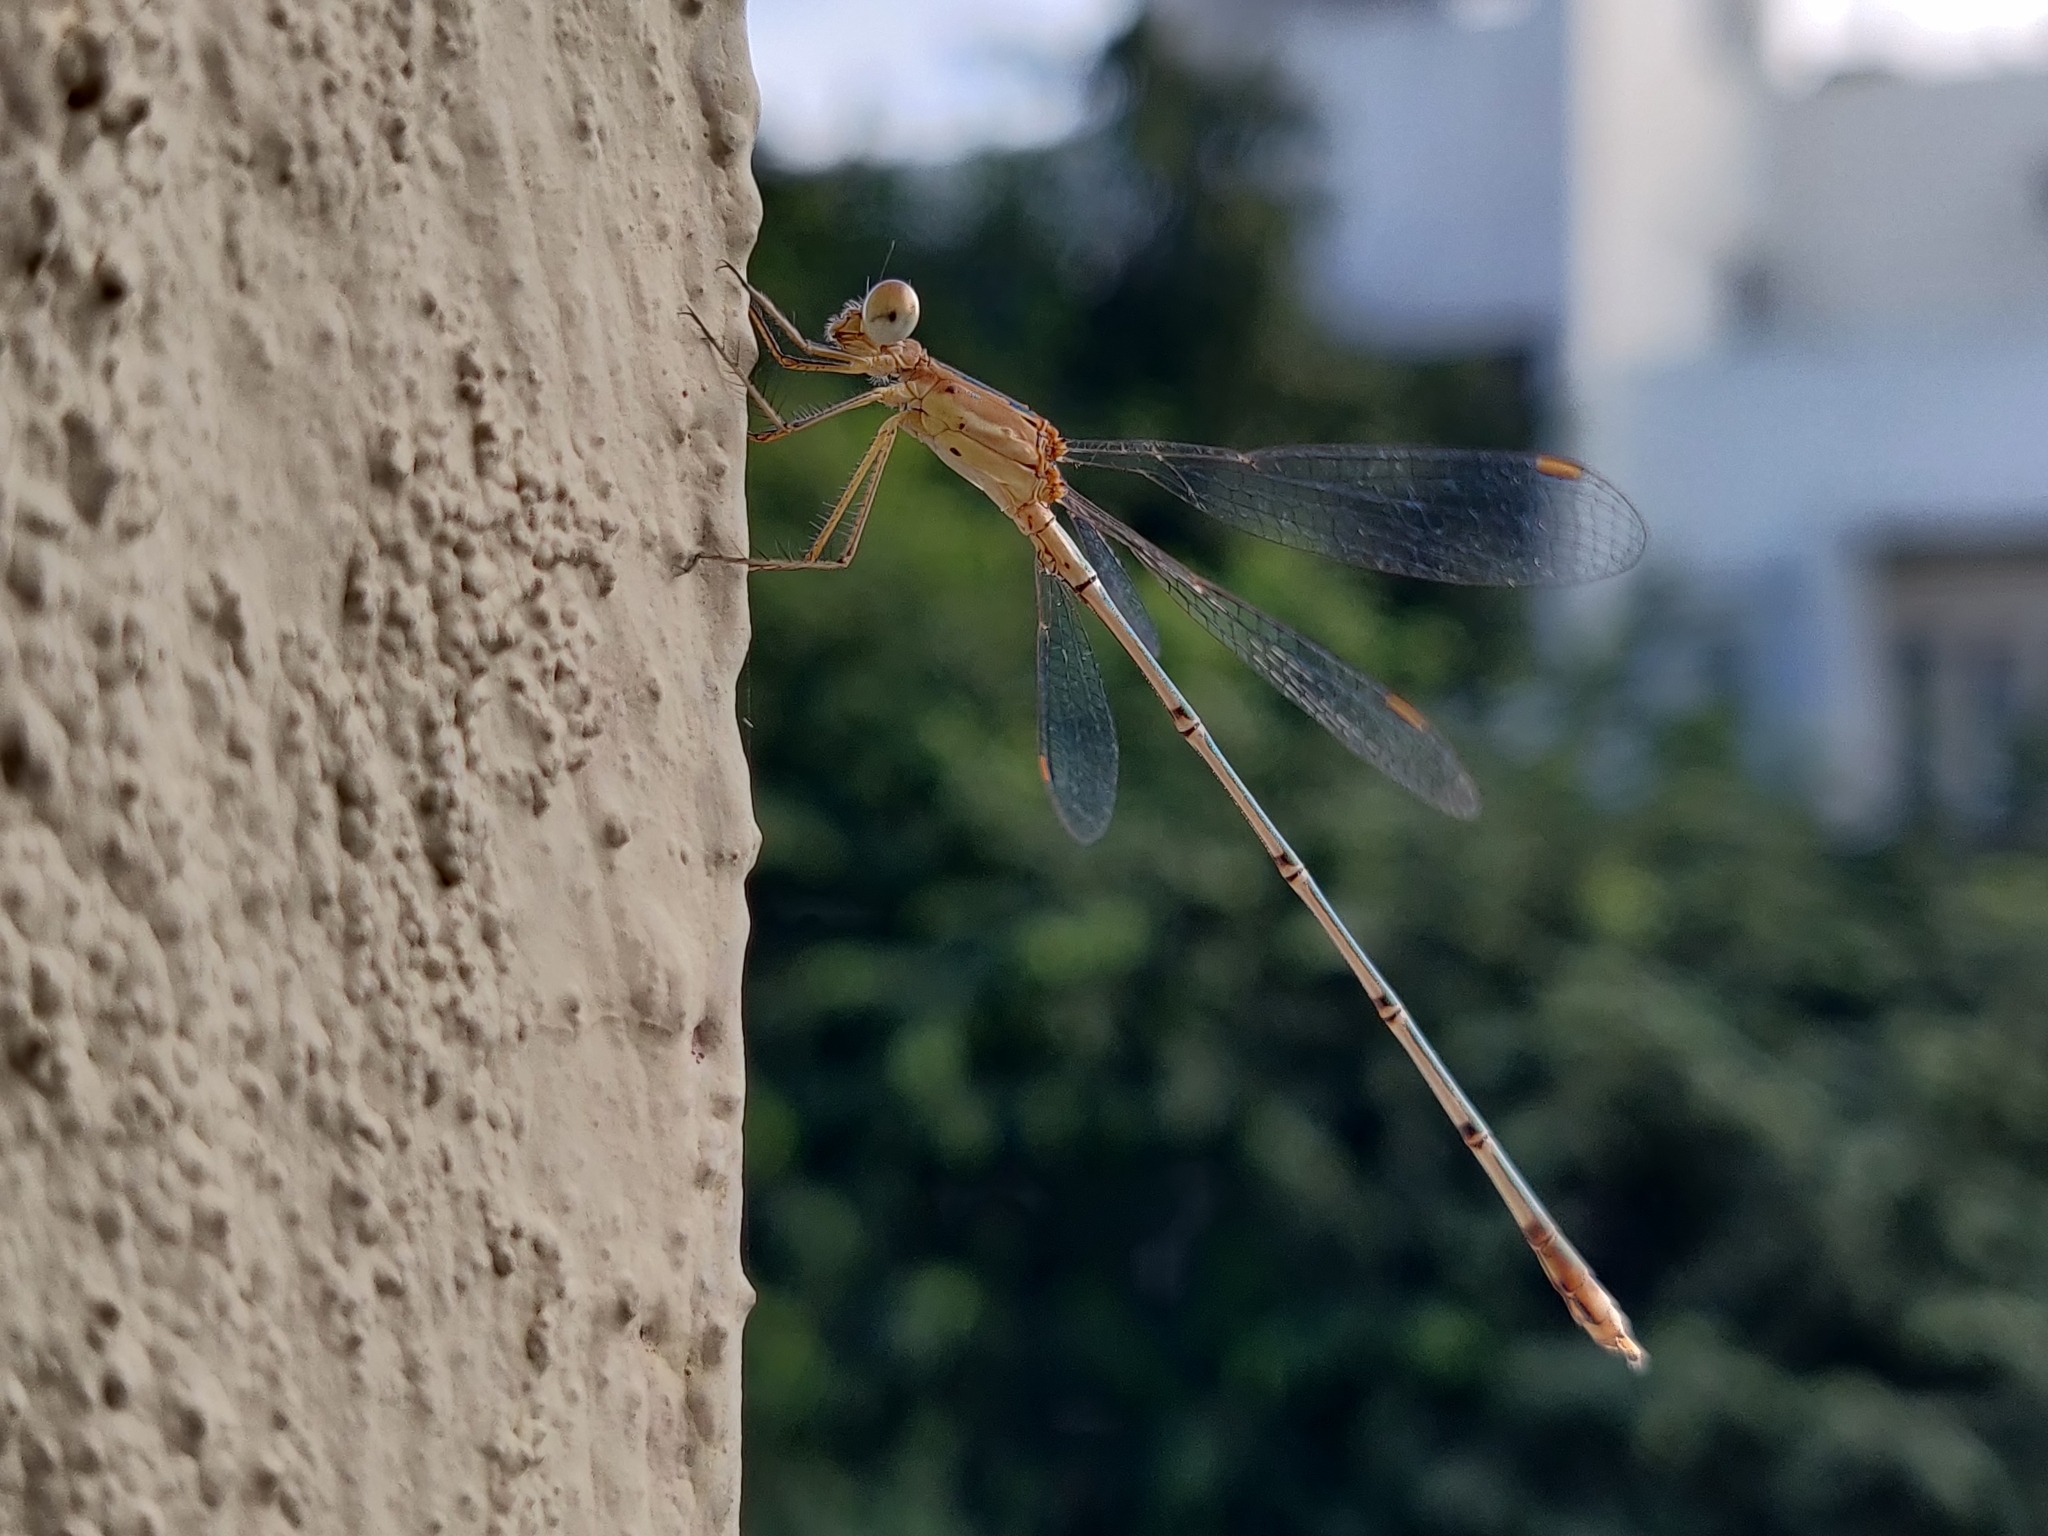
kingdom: Animalia
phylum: Arthropoda
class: Insecta
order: Odonata
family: Lestidae
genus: Lestes
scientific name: Lestes elatus
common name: Emerald spreadwing
